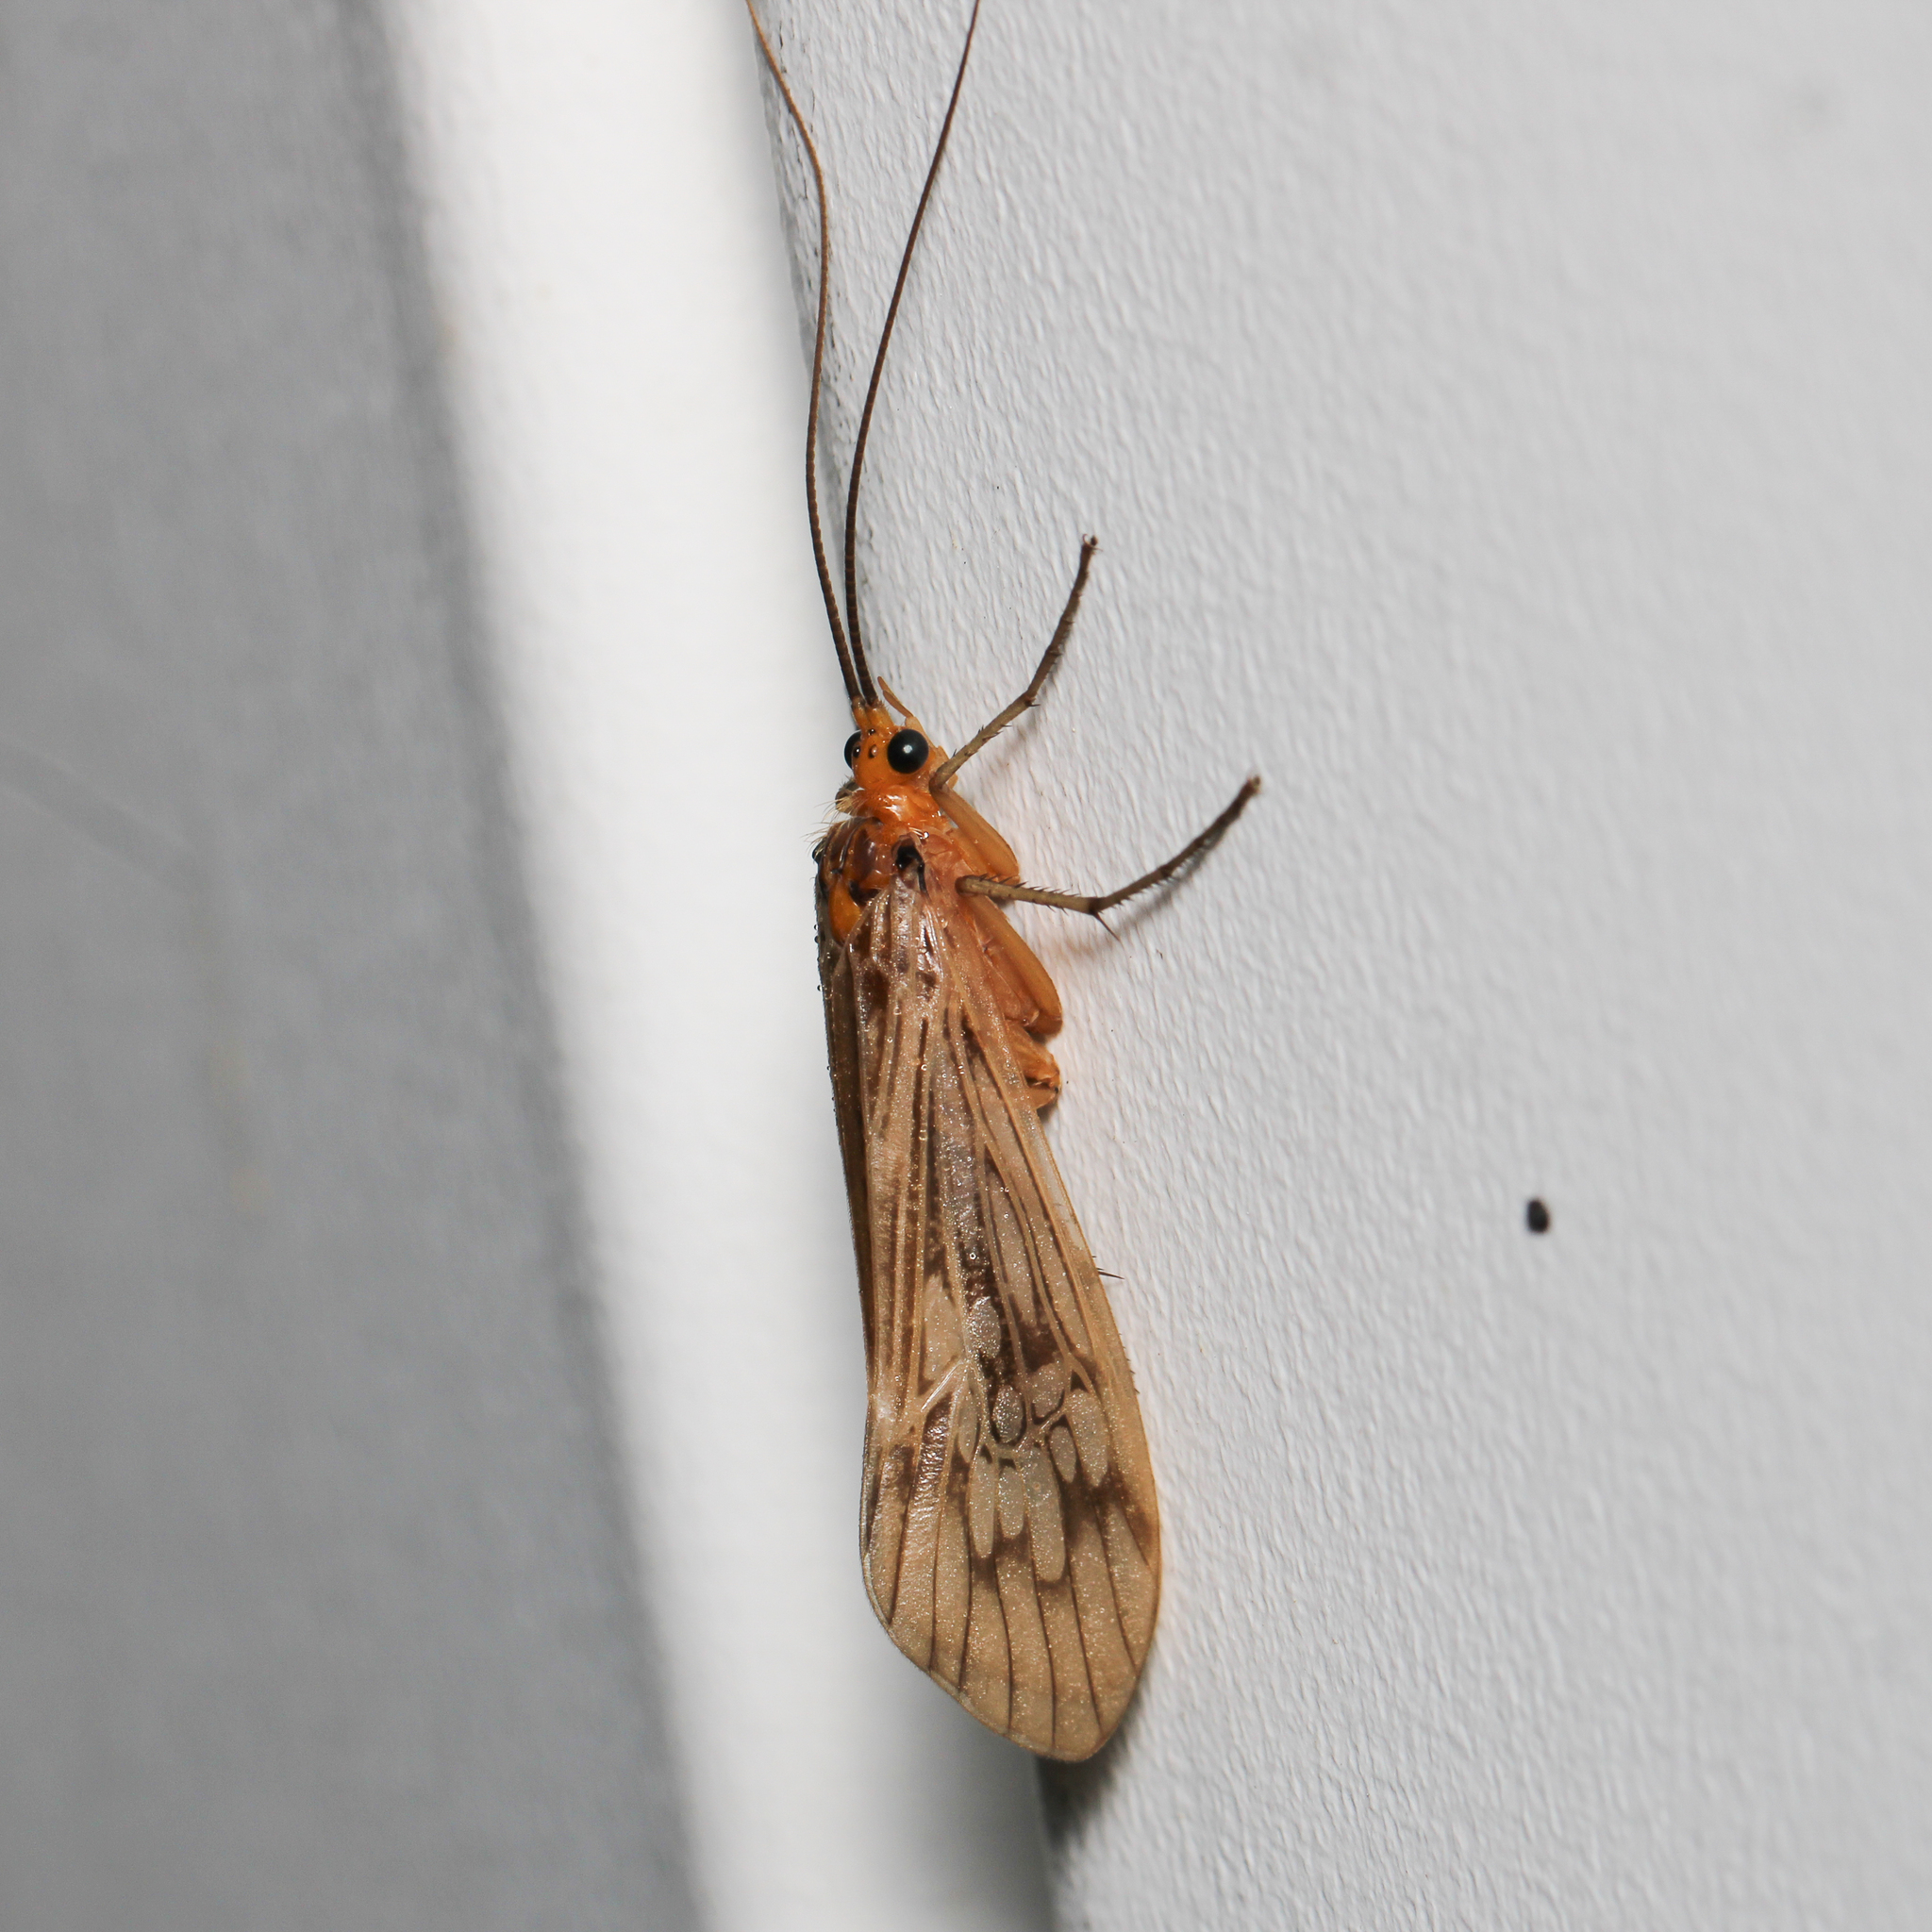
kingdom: Animalia
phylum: Arthropoda
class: Insecta
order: Trichoptera
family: Limnephilidae
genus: Hydatophylax
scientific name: Hydatophylax argus
